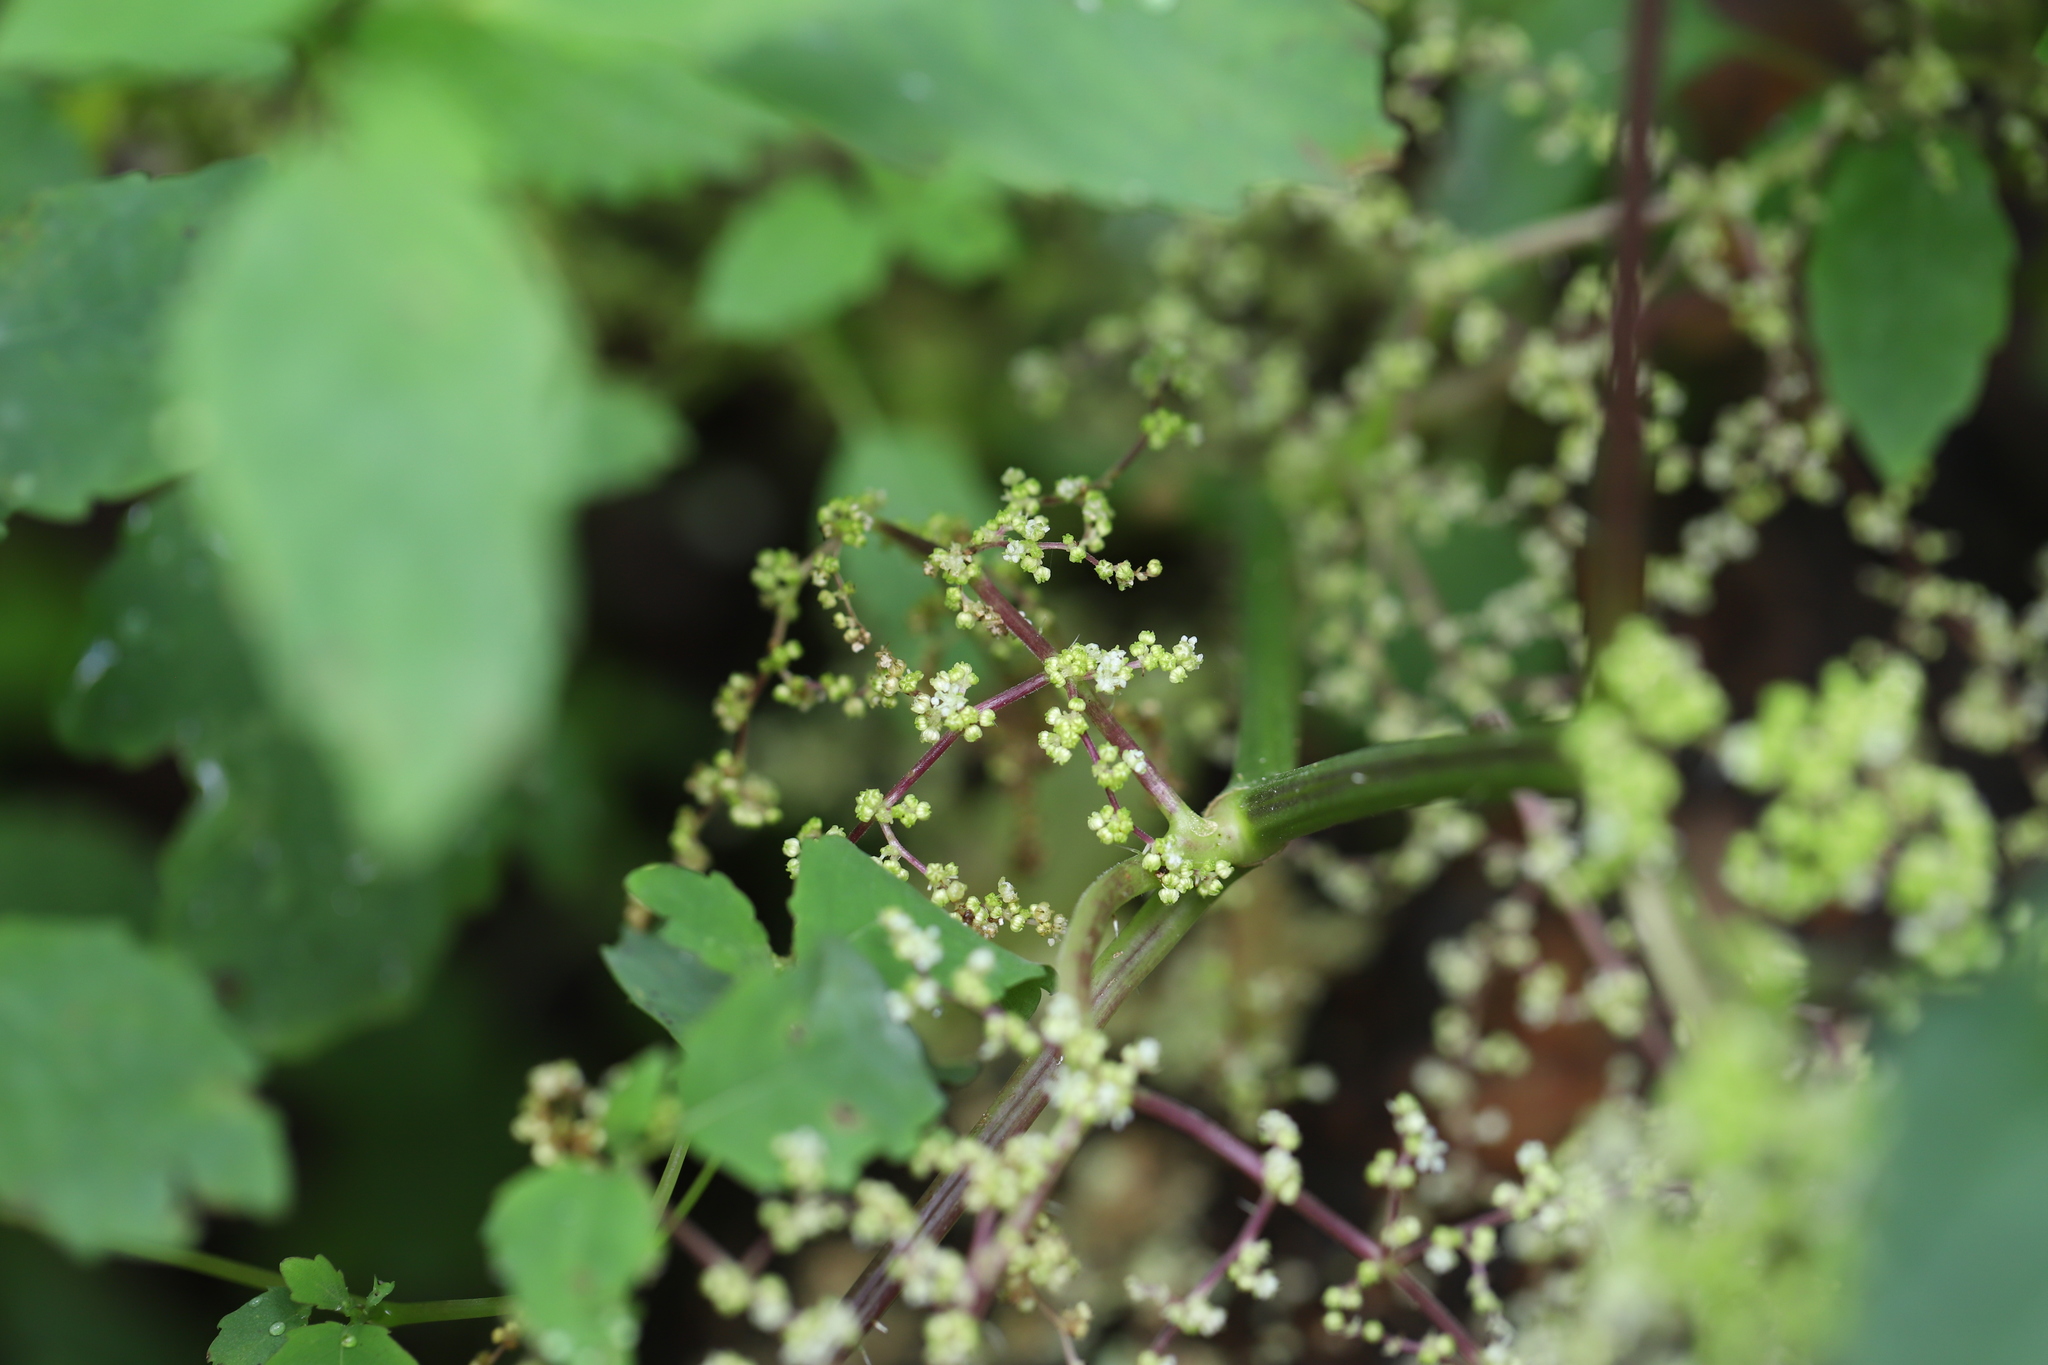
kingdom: Plantae
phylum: Tracheophyta
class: Magnoliopsida
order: Rosales
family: Urticaceae
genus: Laportea
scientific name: Laportea canadensis
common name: Canada nettle
